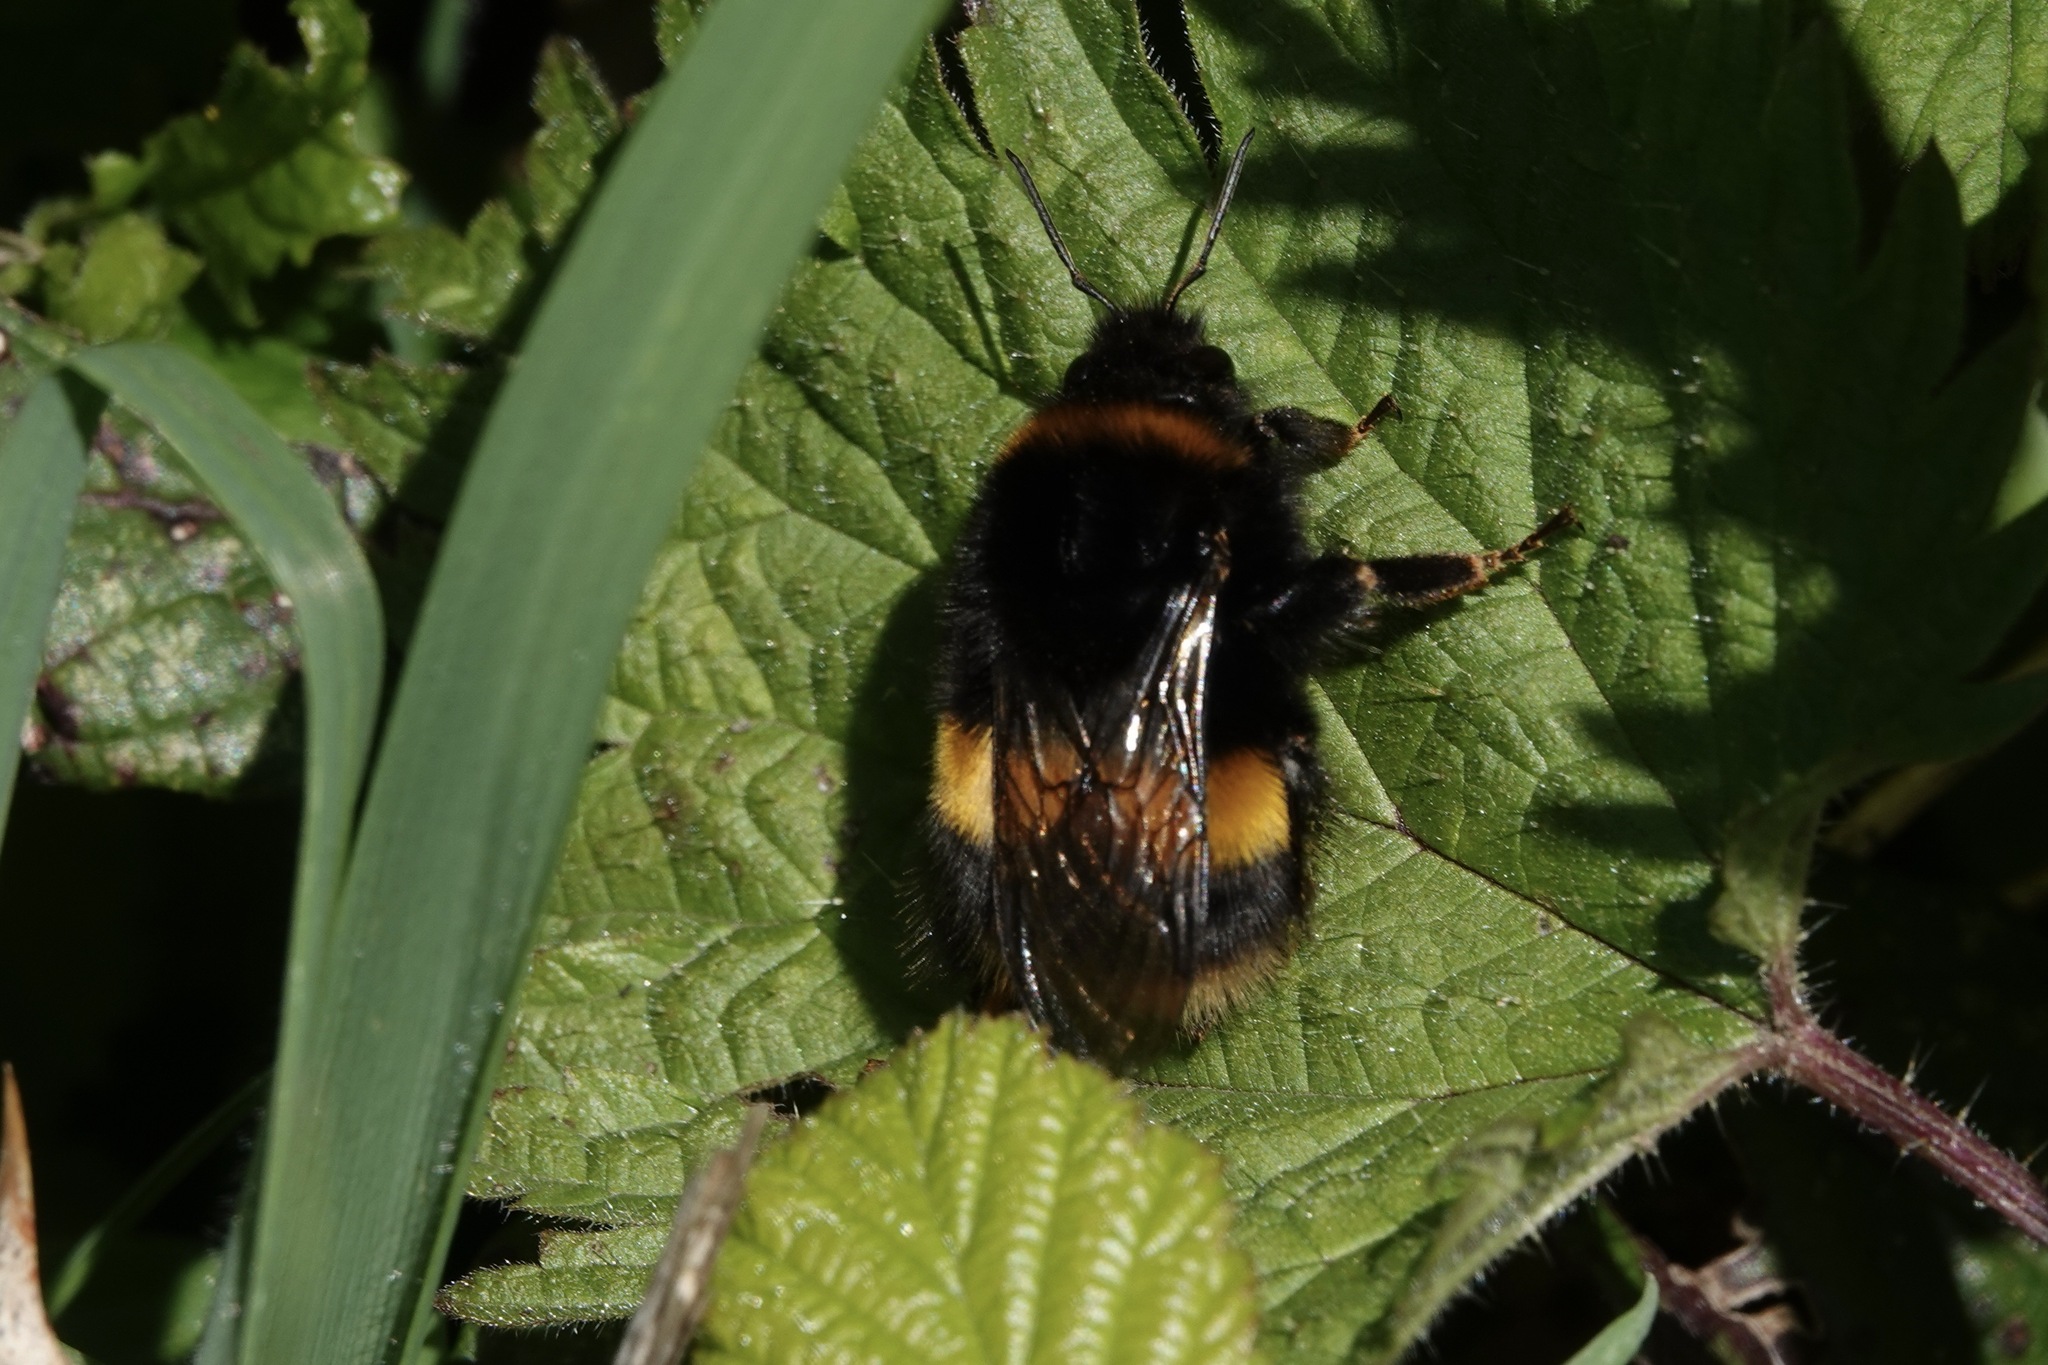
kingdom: Animalia
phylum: Arthropoda
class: Insecta
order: Hymenoptera
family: Apidae
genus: Bombus
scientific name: Bombus terrestris
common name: Buff-tailed bumblebee
